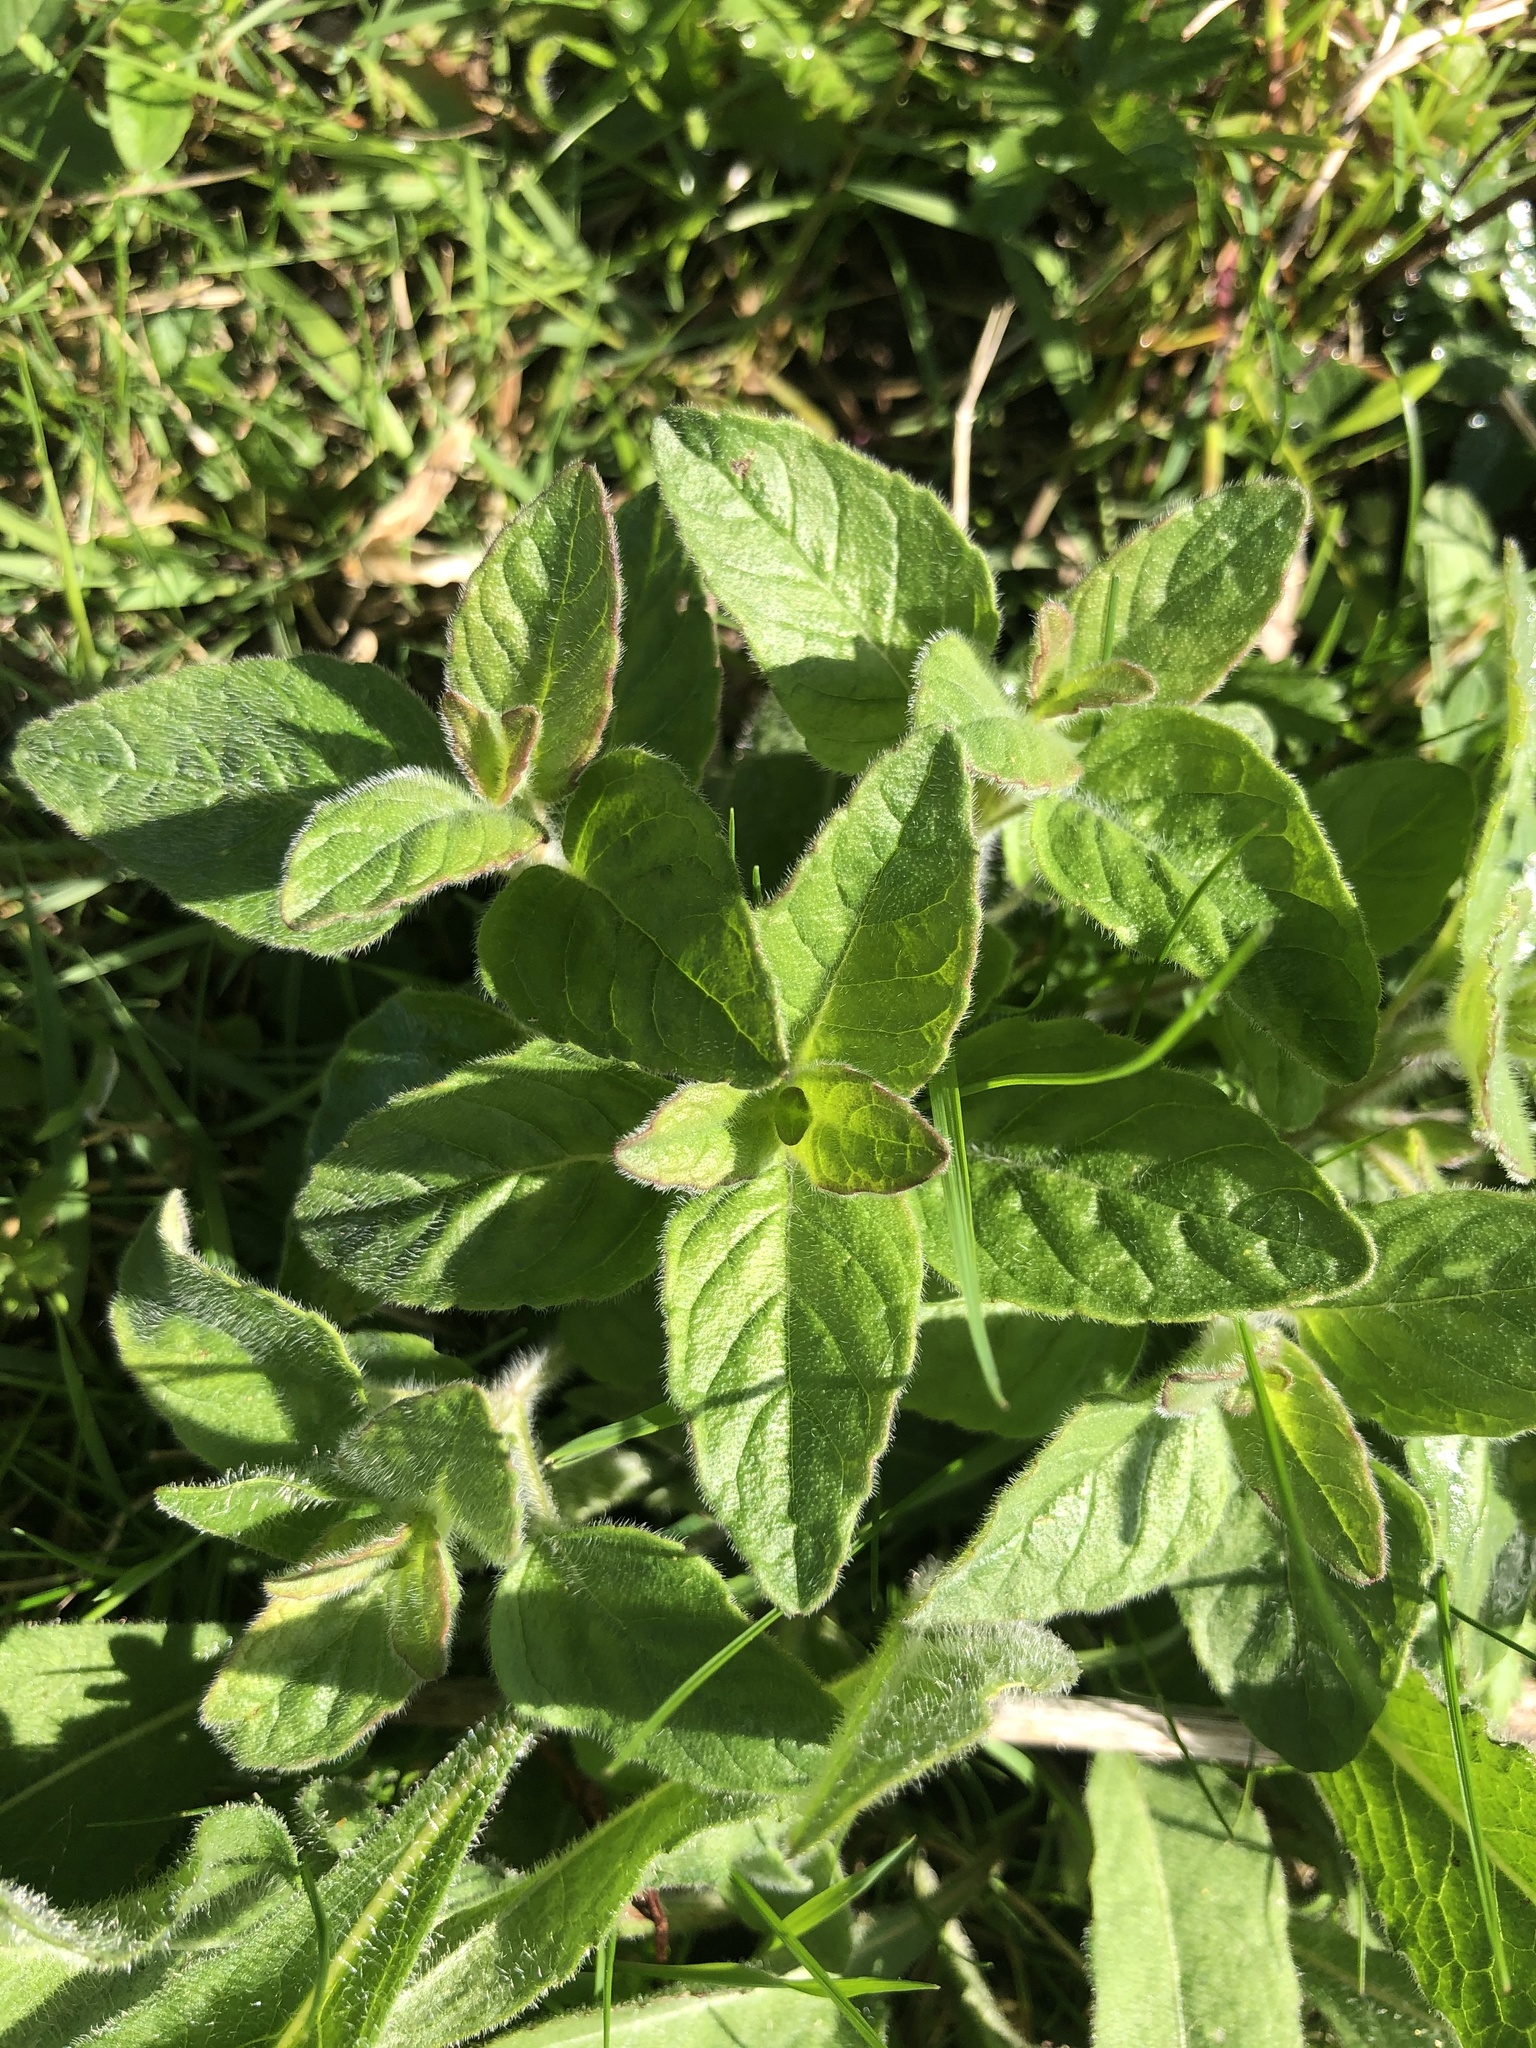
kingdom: Plantae
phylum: Tracheophyta
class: Magnoliopsida
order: Lamiales
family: Lamiaceae
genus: Origanum
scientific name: Origanum vulgare
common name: Wild marjoram
